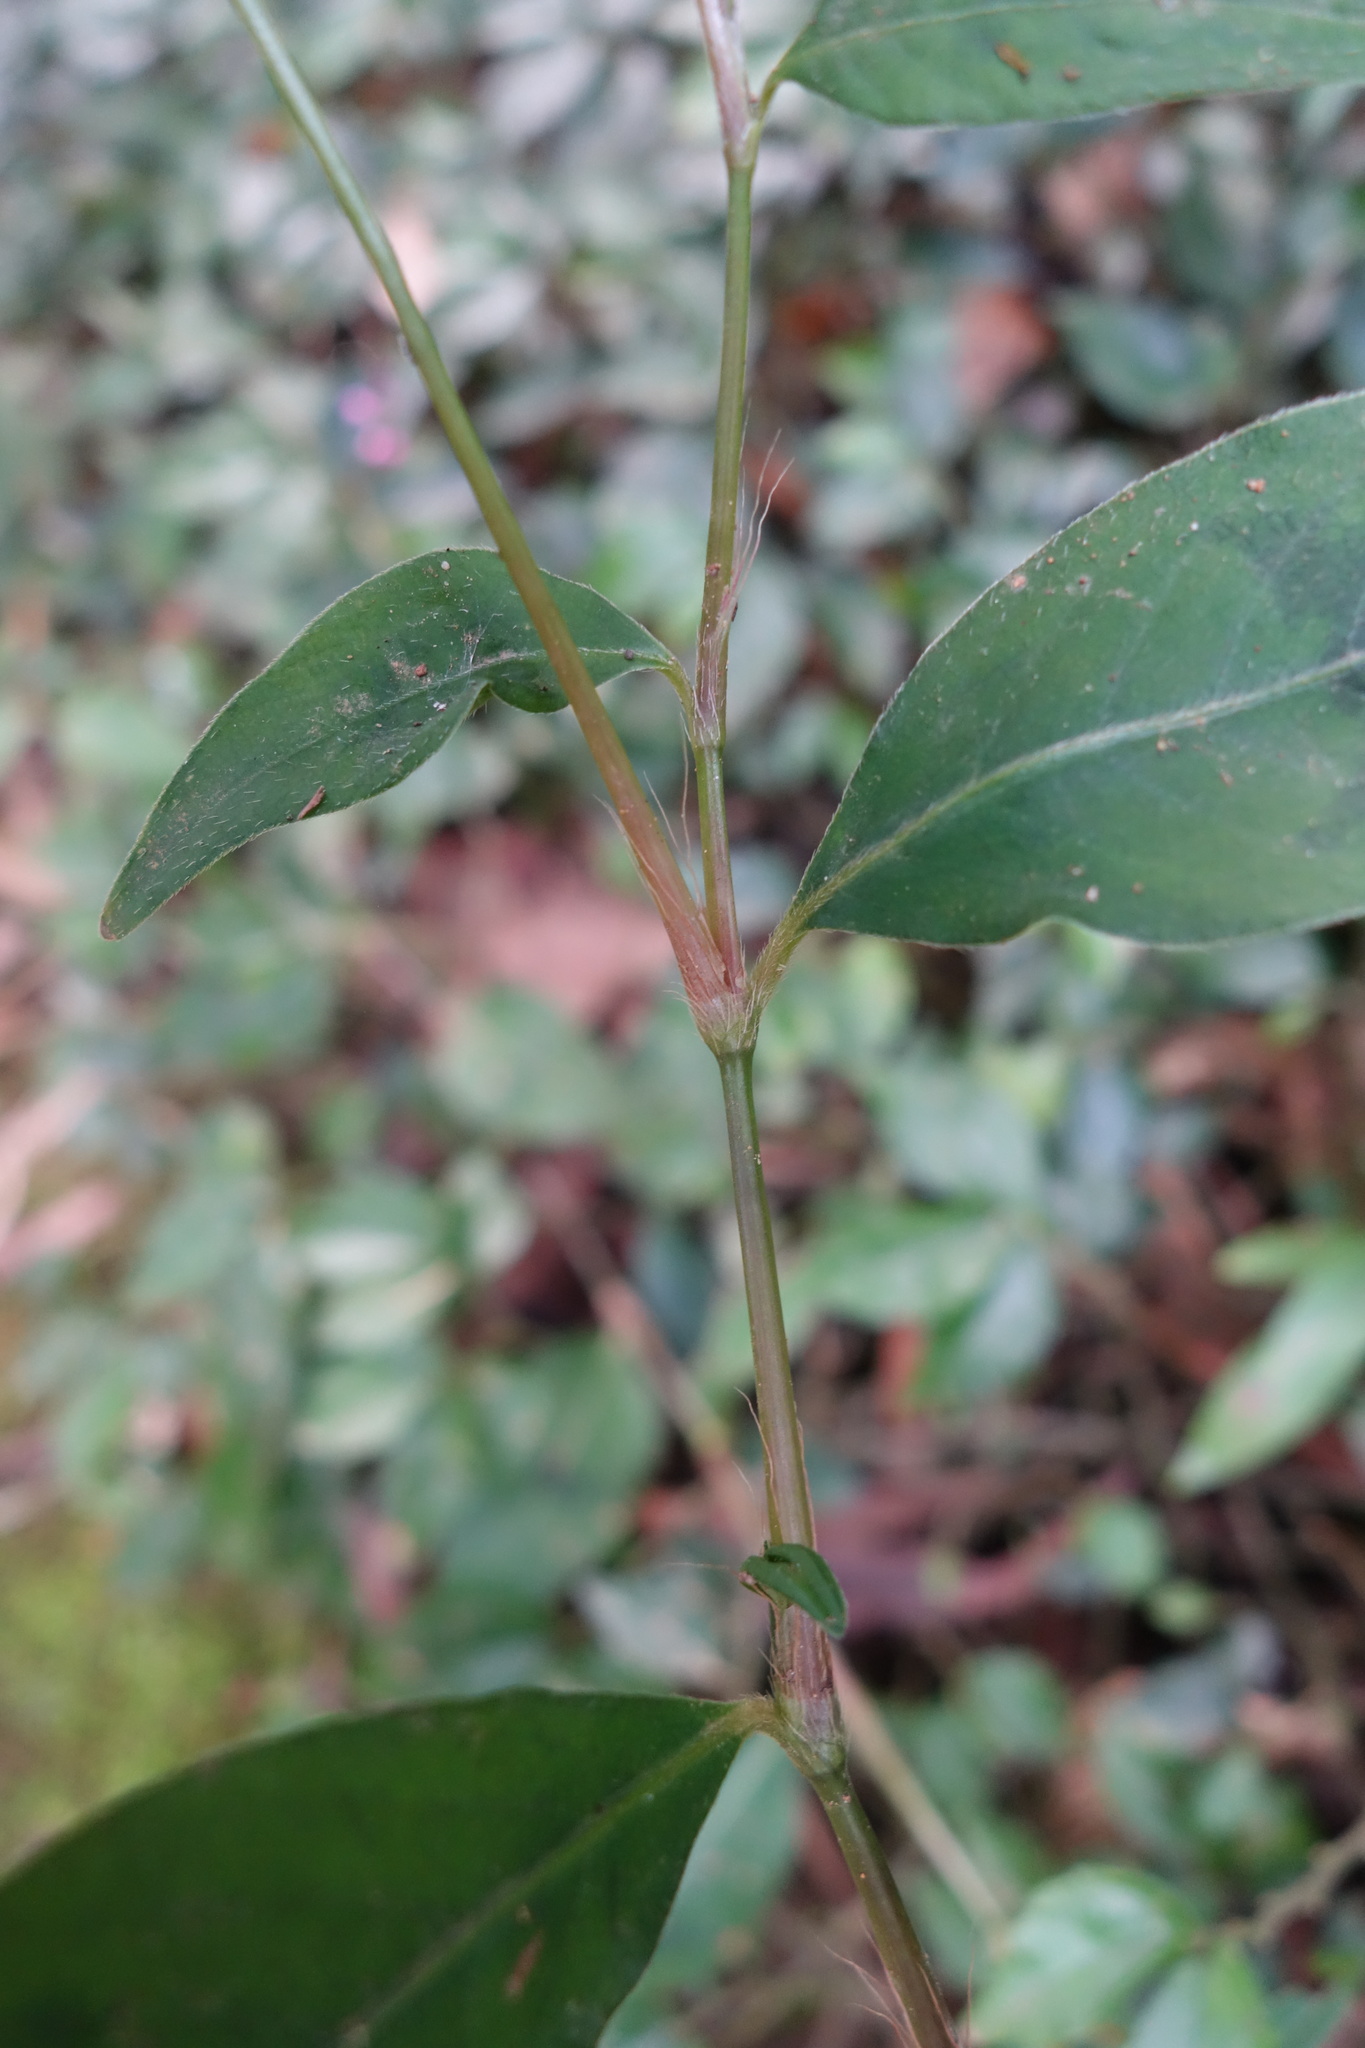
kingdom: Plantae
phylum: Tracheophyta
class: Magnoliopsida
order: Caryophyllales
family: Polygonaceae
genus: Persicaria
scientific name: Persicaria posumbu
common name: Oriental lady's thumb
